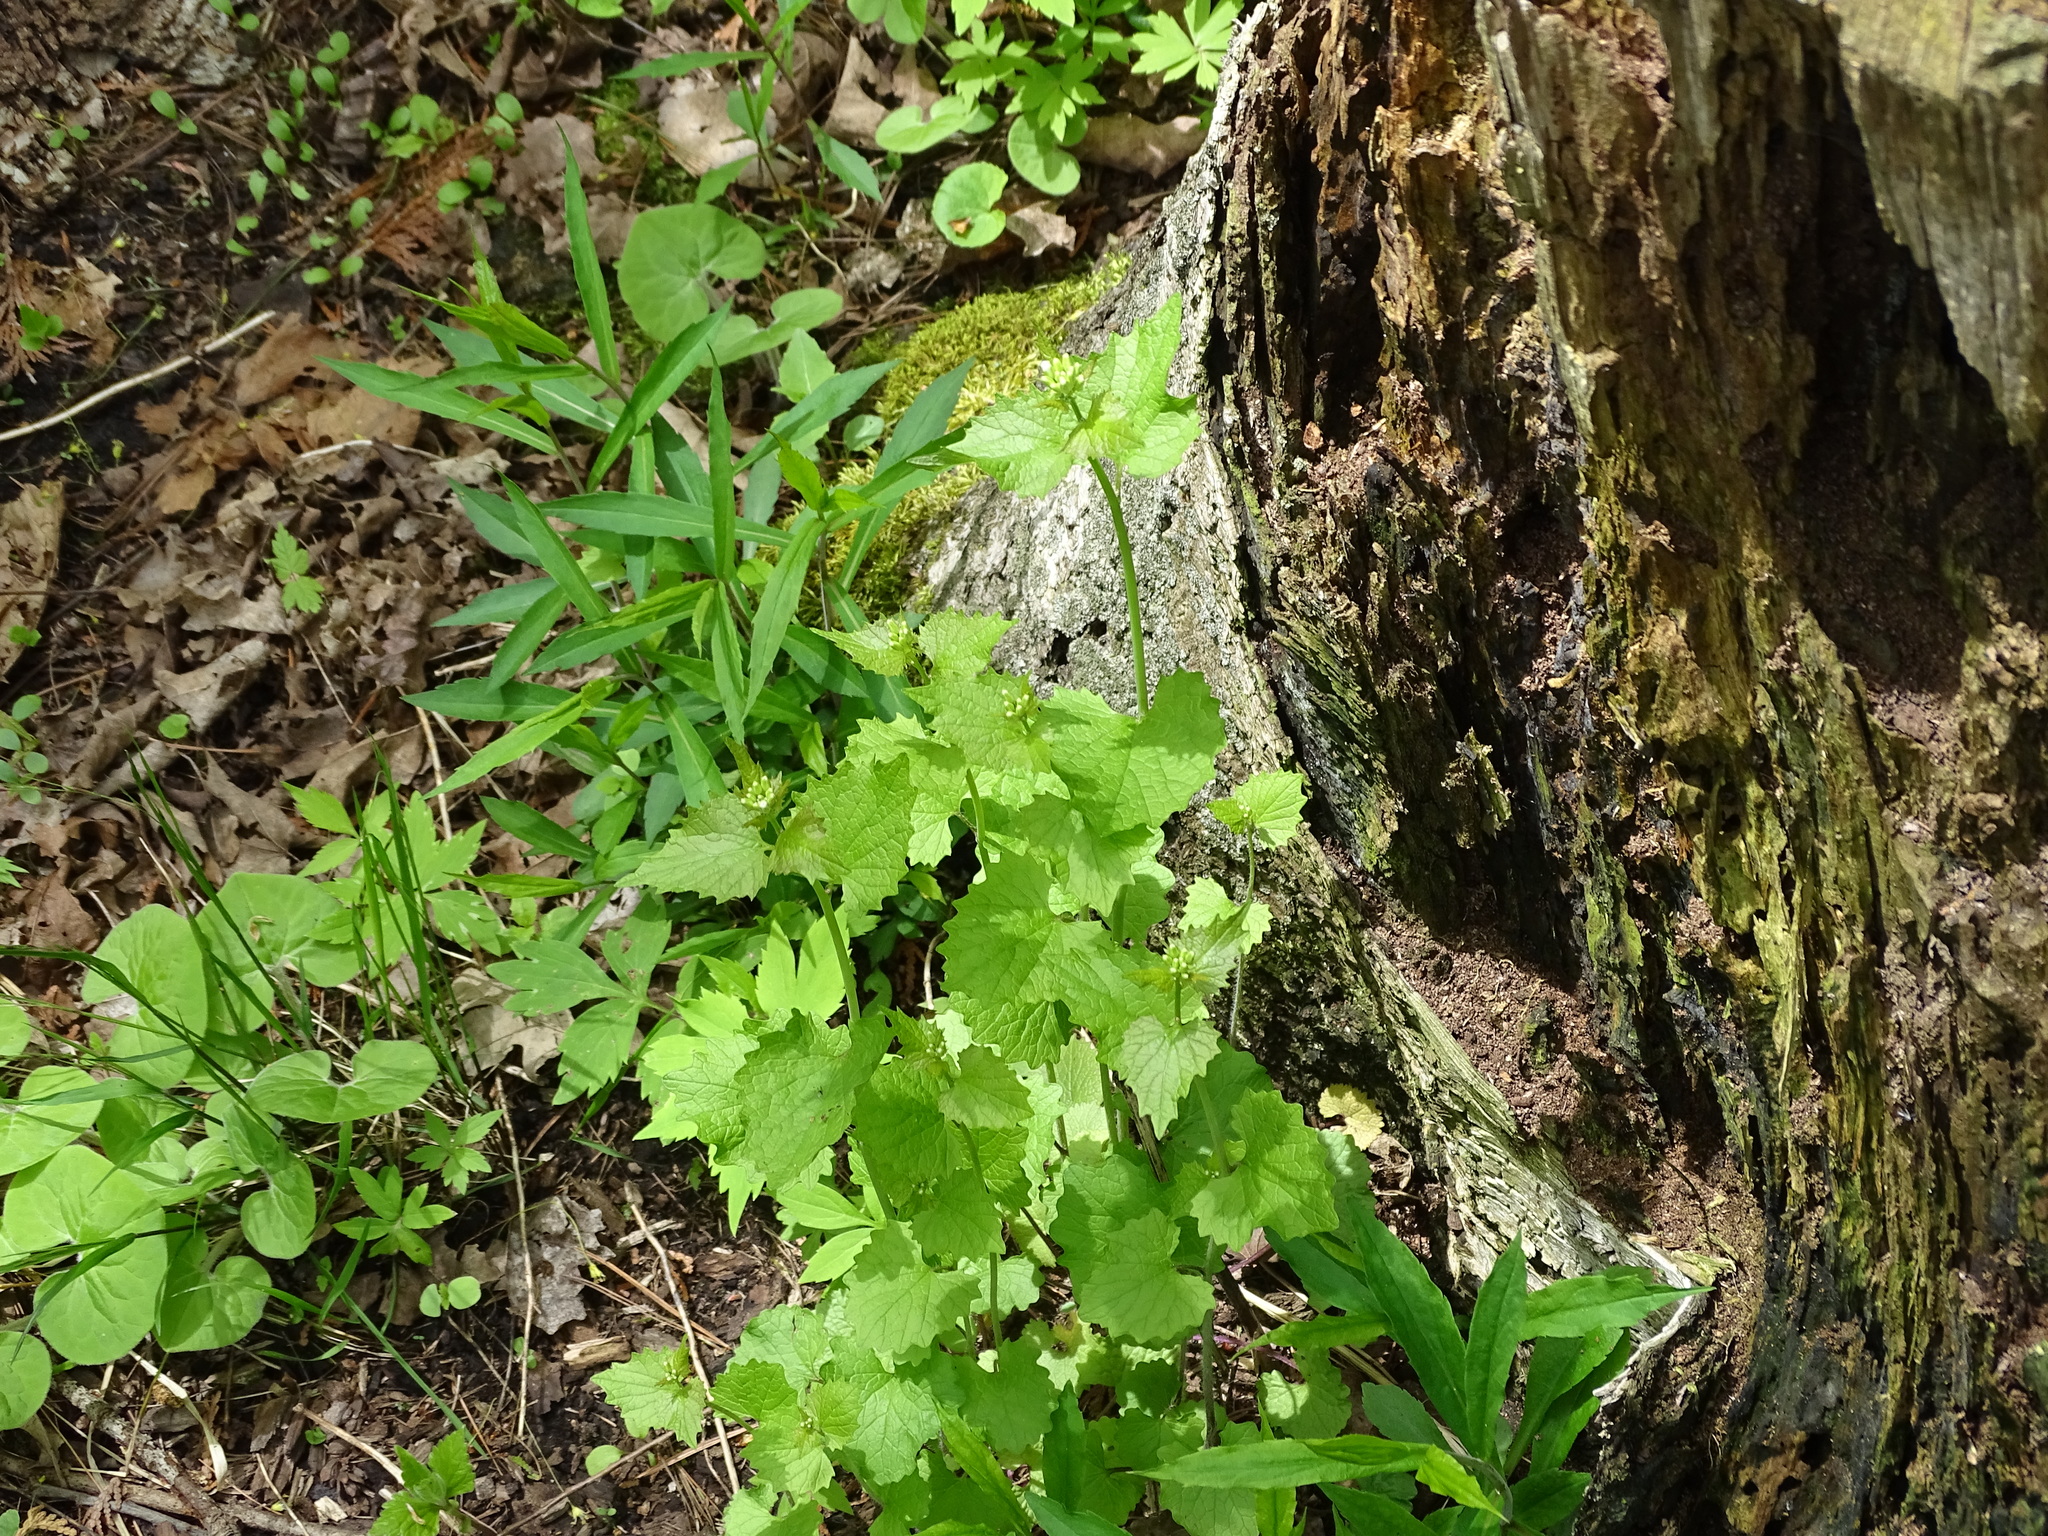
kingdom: Plantae
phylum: Tracheophyta
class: Magnoliopsida
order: Brassicales
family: Brassicaceae
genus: Alliaria
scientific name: Alliaria petiolata
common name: Garlic mustard
